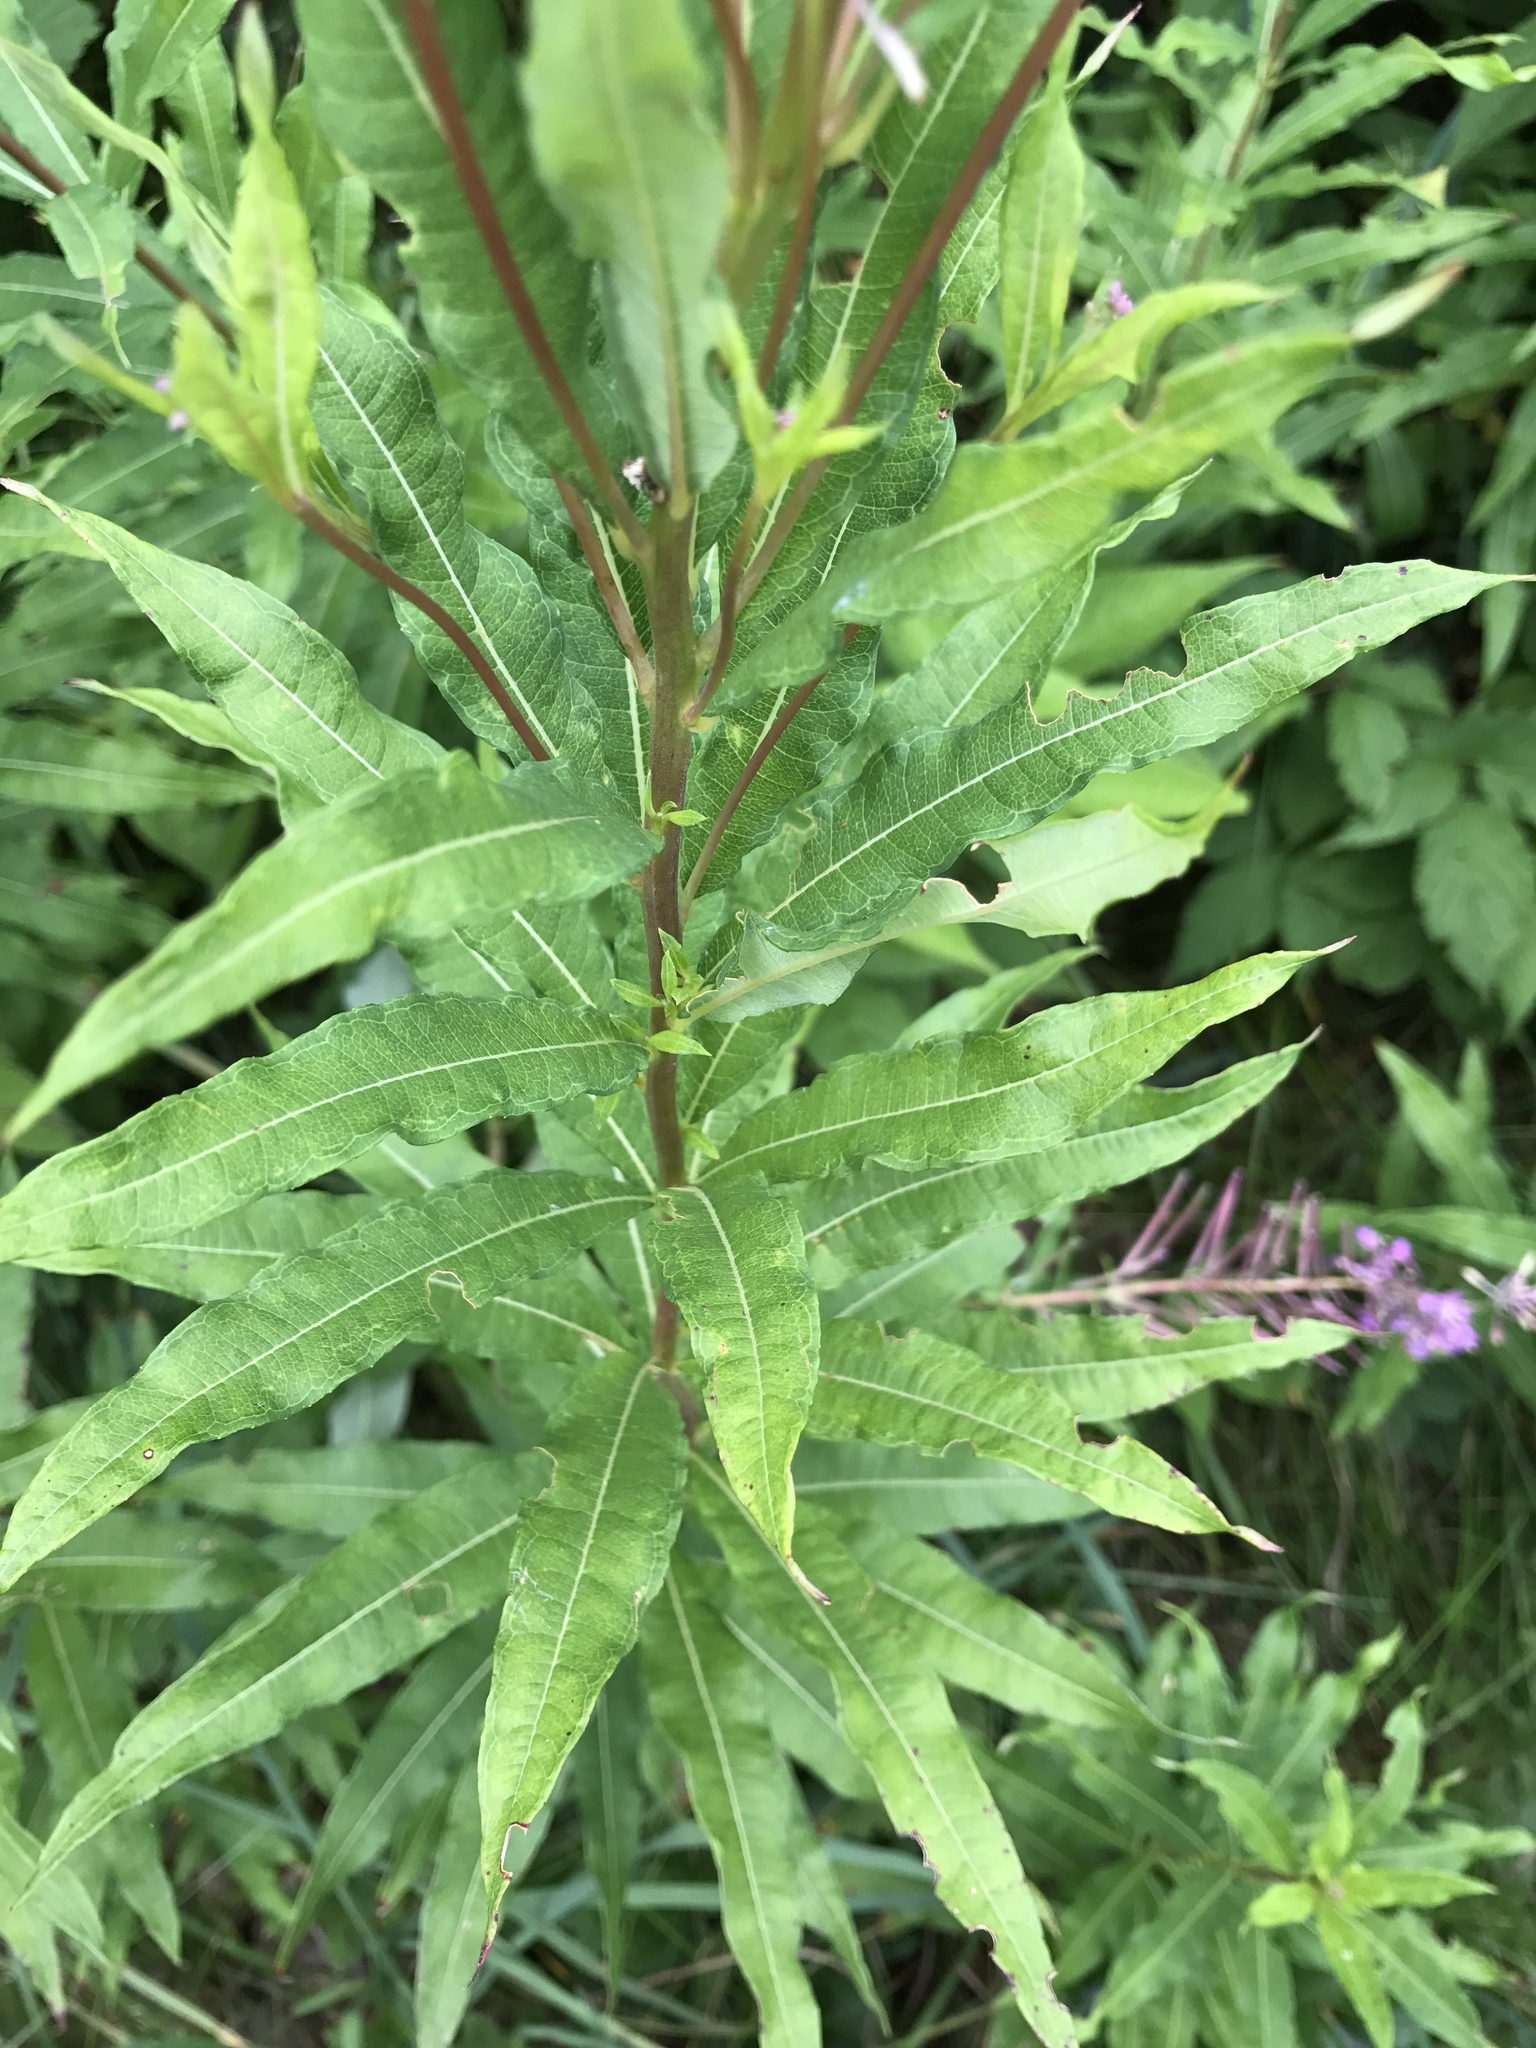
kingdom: Plantae
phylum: Tracheophyta
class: Magnoliopsida
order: Myrtales
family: Onagraceae
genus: Chamaenerion
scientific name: Chamaenerion angustifolium
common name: Fireweed
